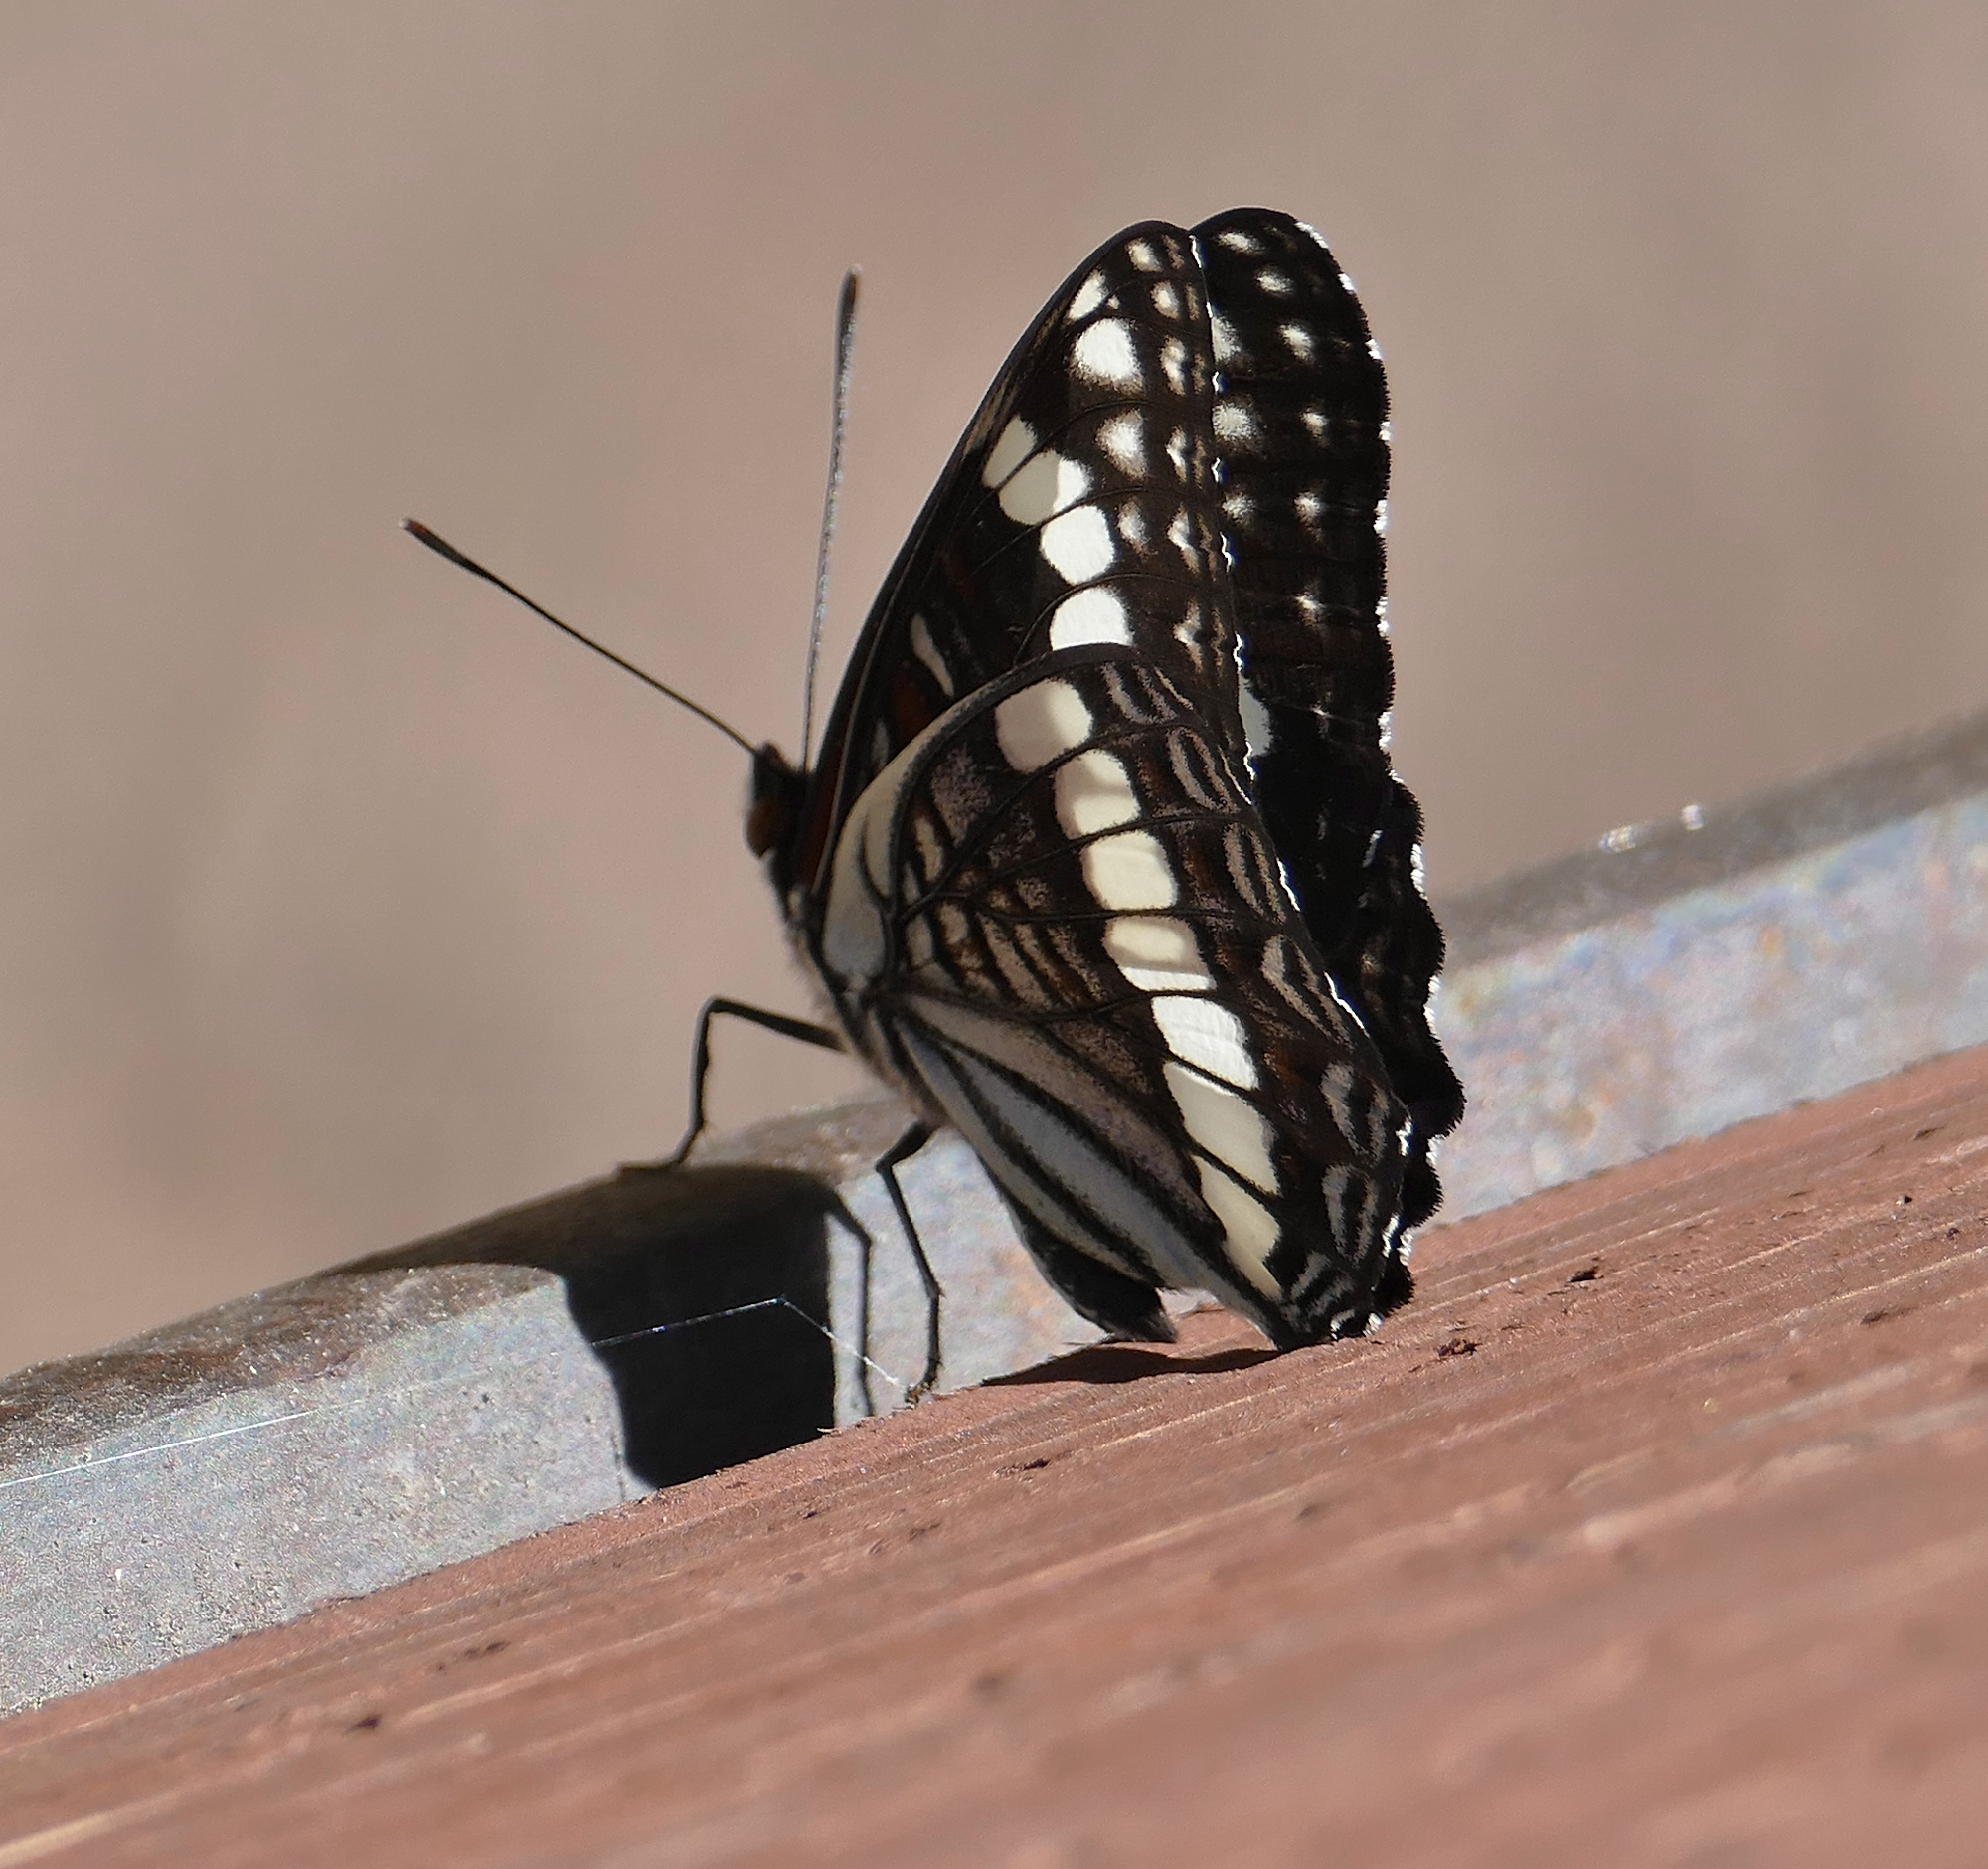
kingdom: Animalia
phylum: Arthropoda
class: Insecta
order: Lepidoptera
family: Nymphalidae
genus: Limenitis
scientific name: Limenitis weidemeyerii
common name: Weidemeyer's admiral
